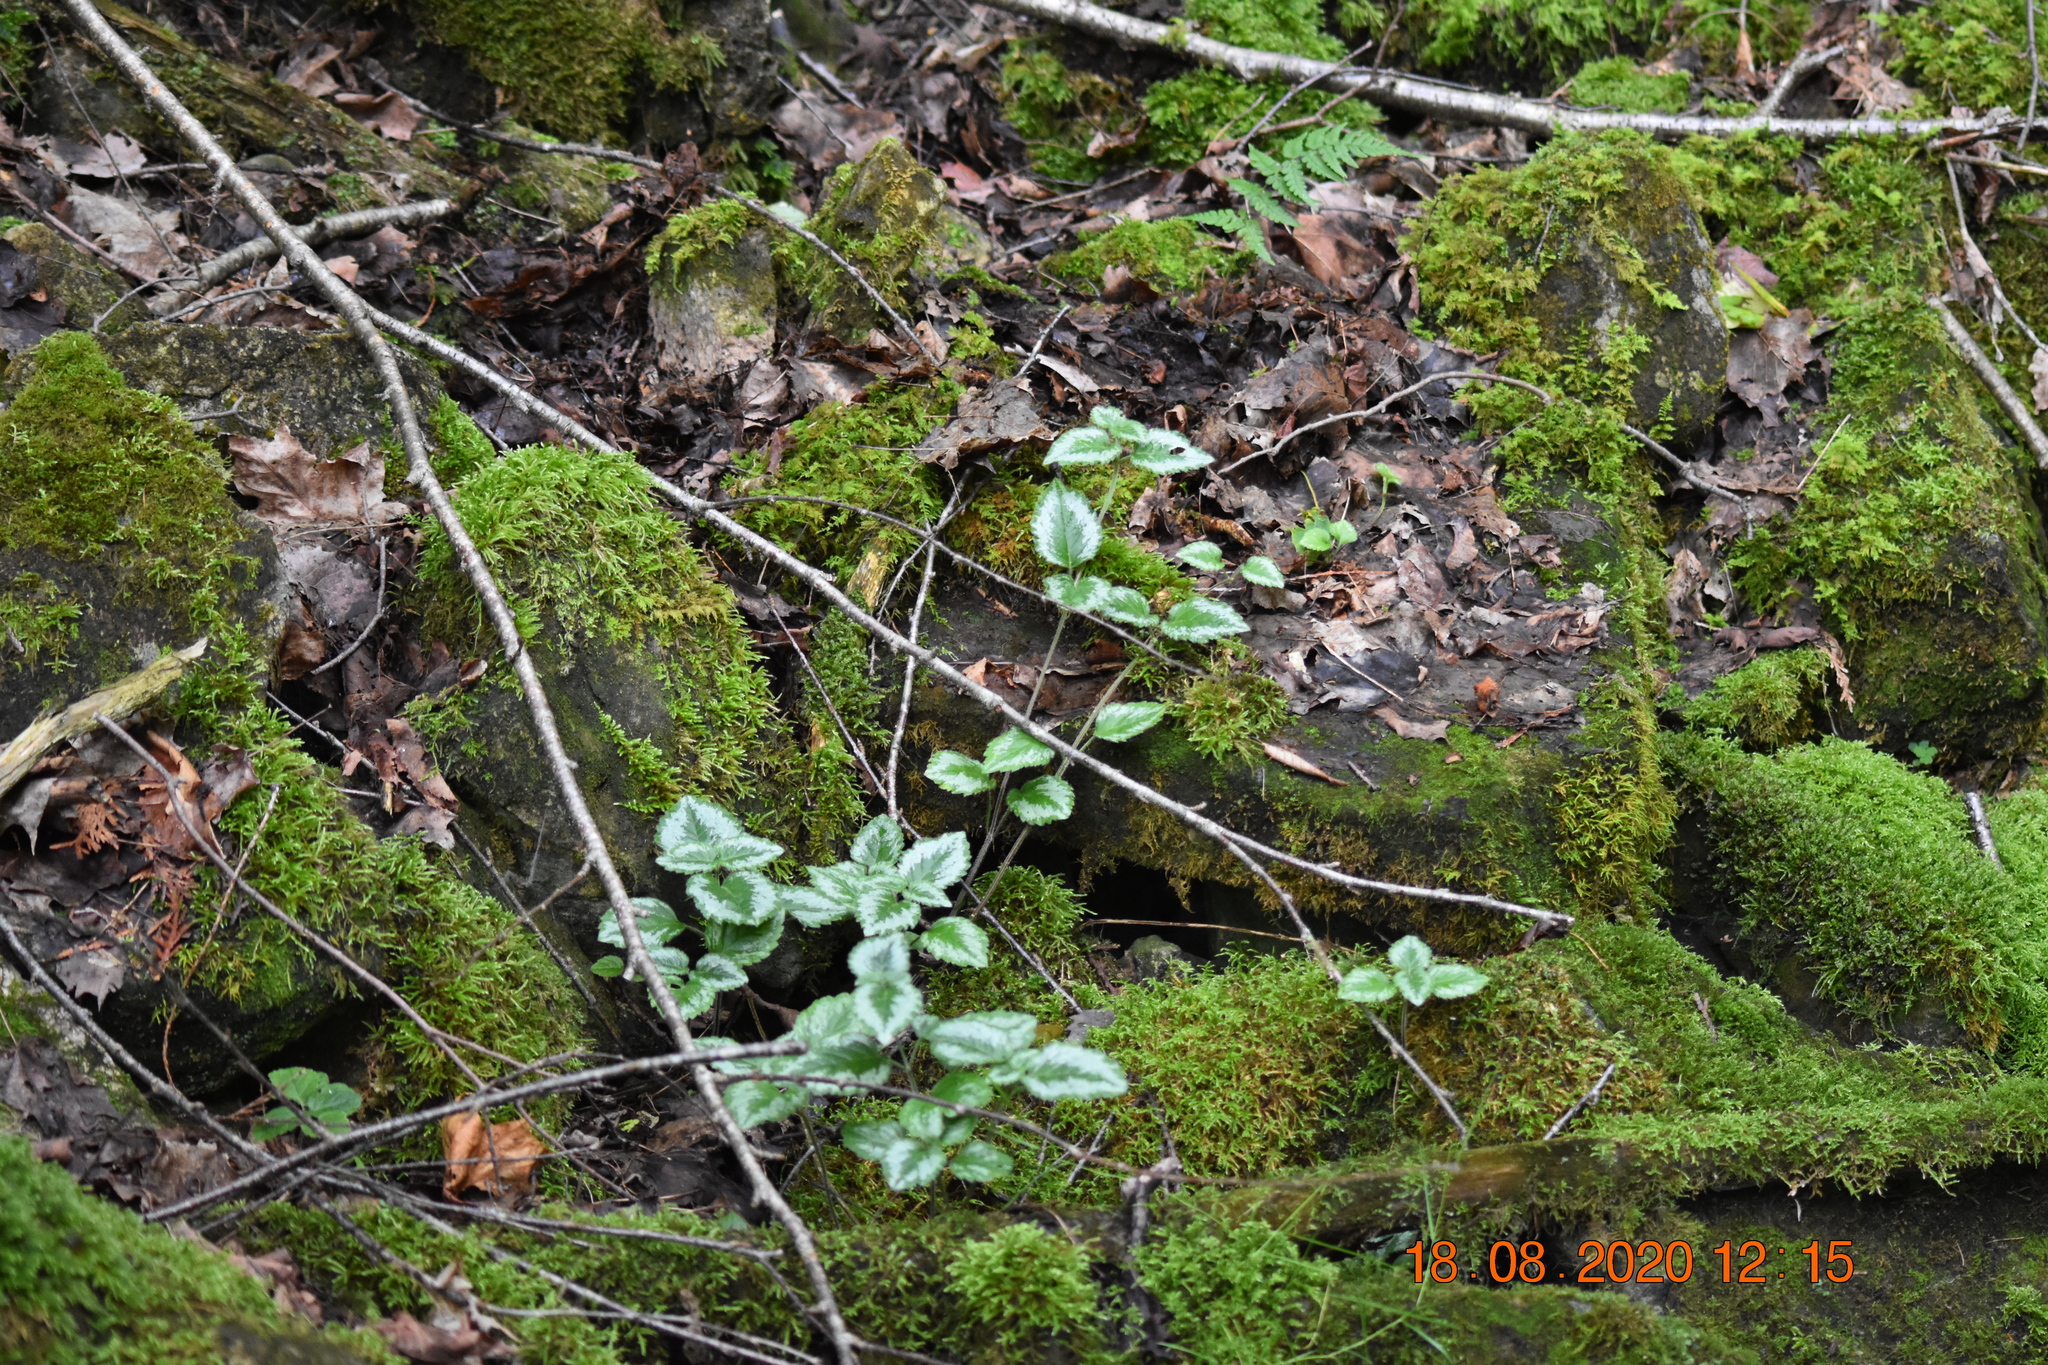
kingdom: Plantae
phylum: Tracheophyta
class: Magnoliopsida
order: Lamiales
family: Lamiaceae
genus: Lamium
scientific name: Lamium galeobdolon
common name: Yellow archangel
